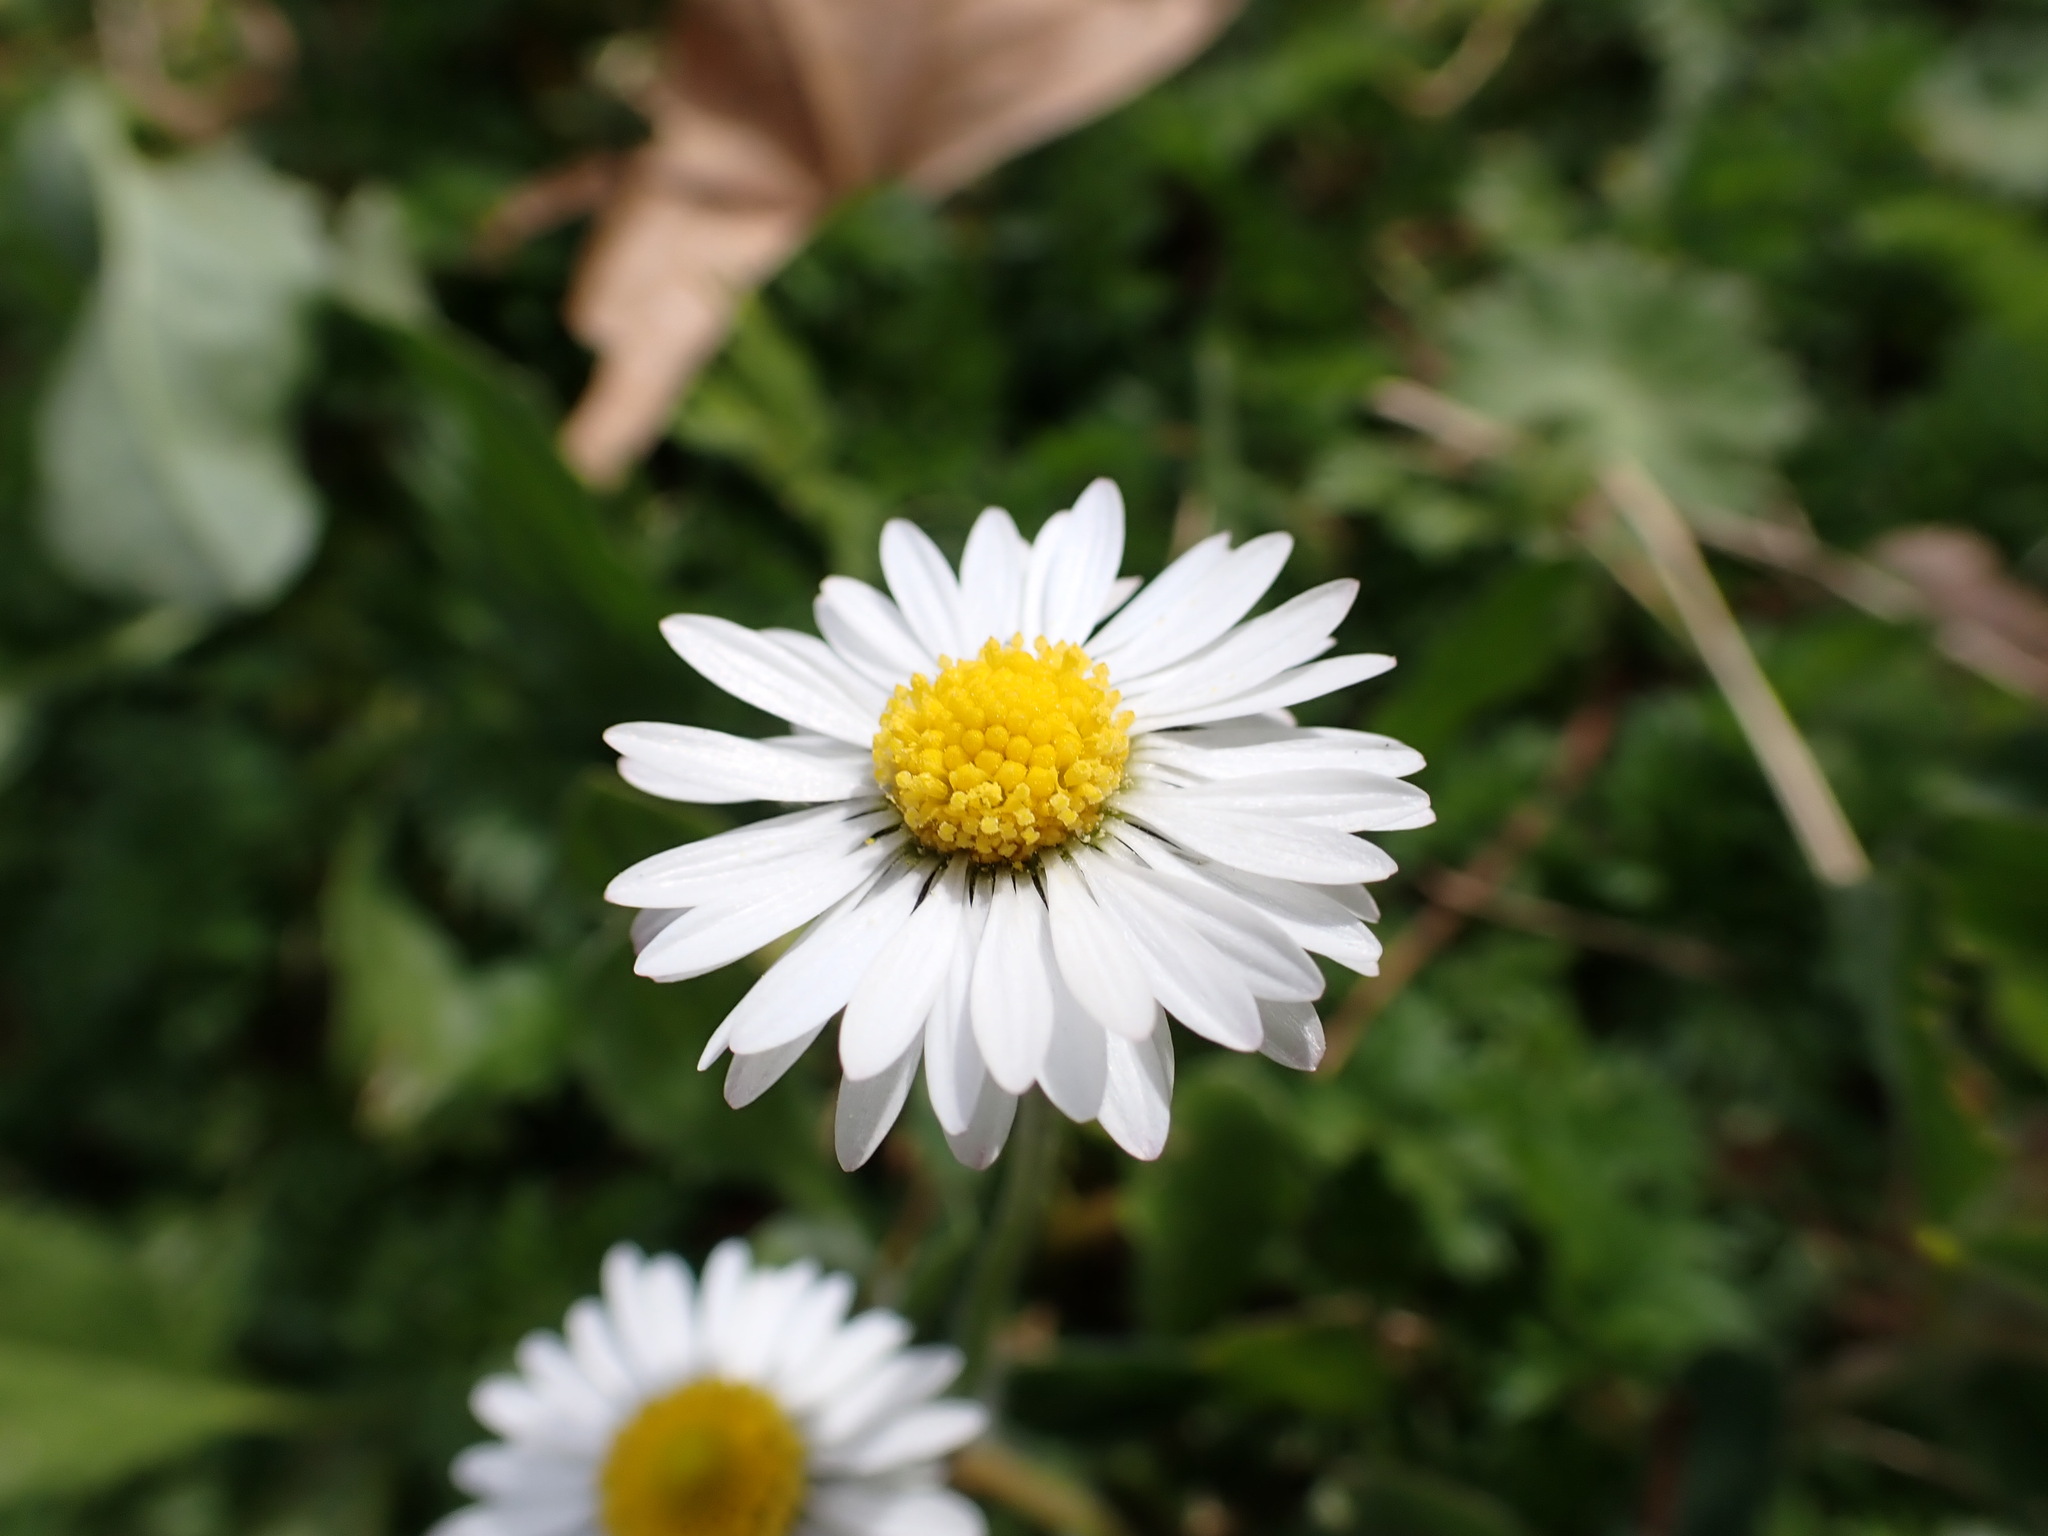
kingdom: Plantae
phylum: Tracheophyta
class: Magnoliopsida
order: Asterales
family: Asteraceae
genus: Bellis
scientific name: Bellis perennis
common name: Lawndaisy
